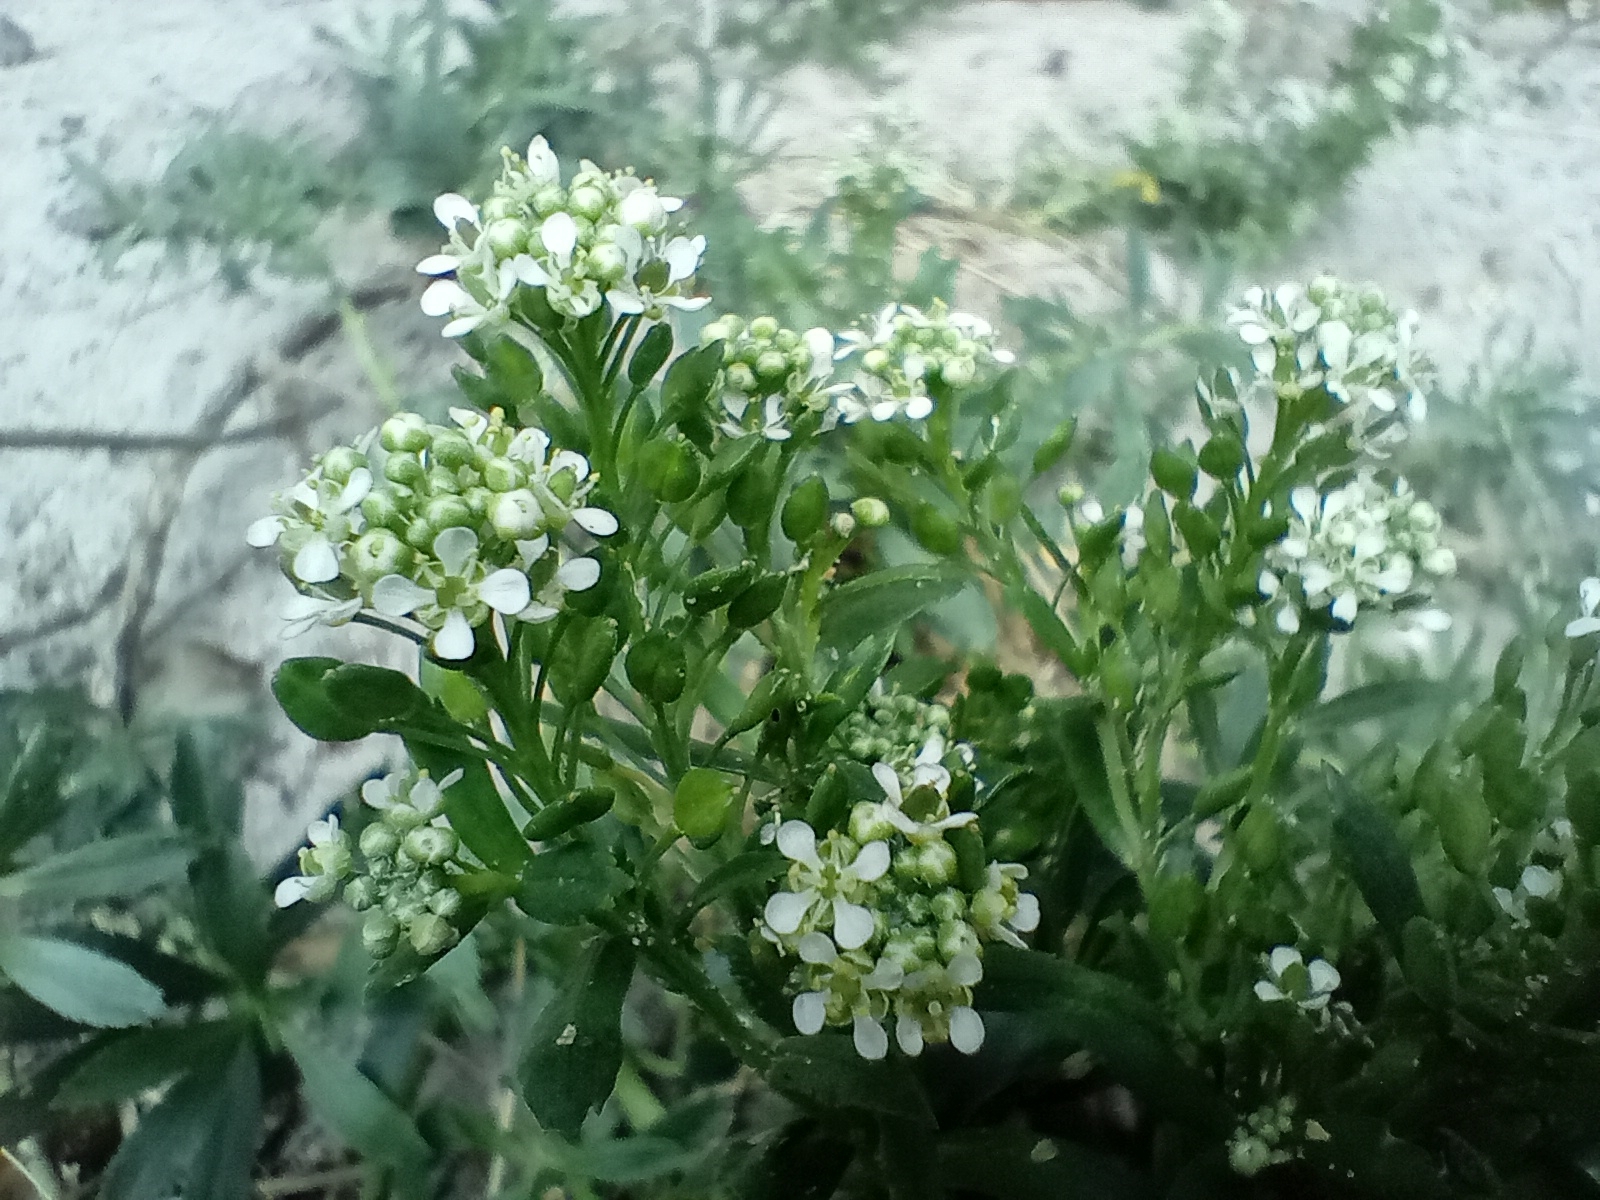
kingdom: Plantae
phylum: Tracheophyta
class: Magnoliopsida
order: Brassicales
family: Brassicaceae
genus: Lepidium
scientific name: Lepidium juvencum
